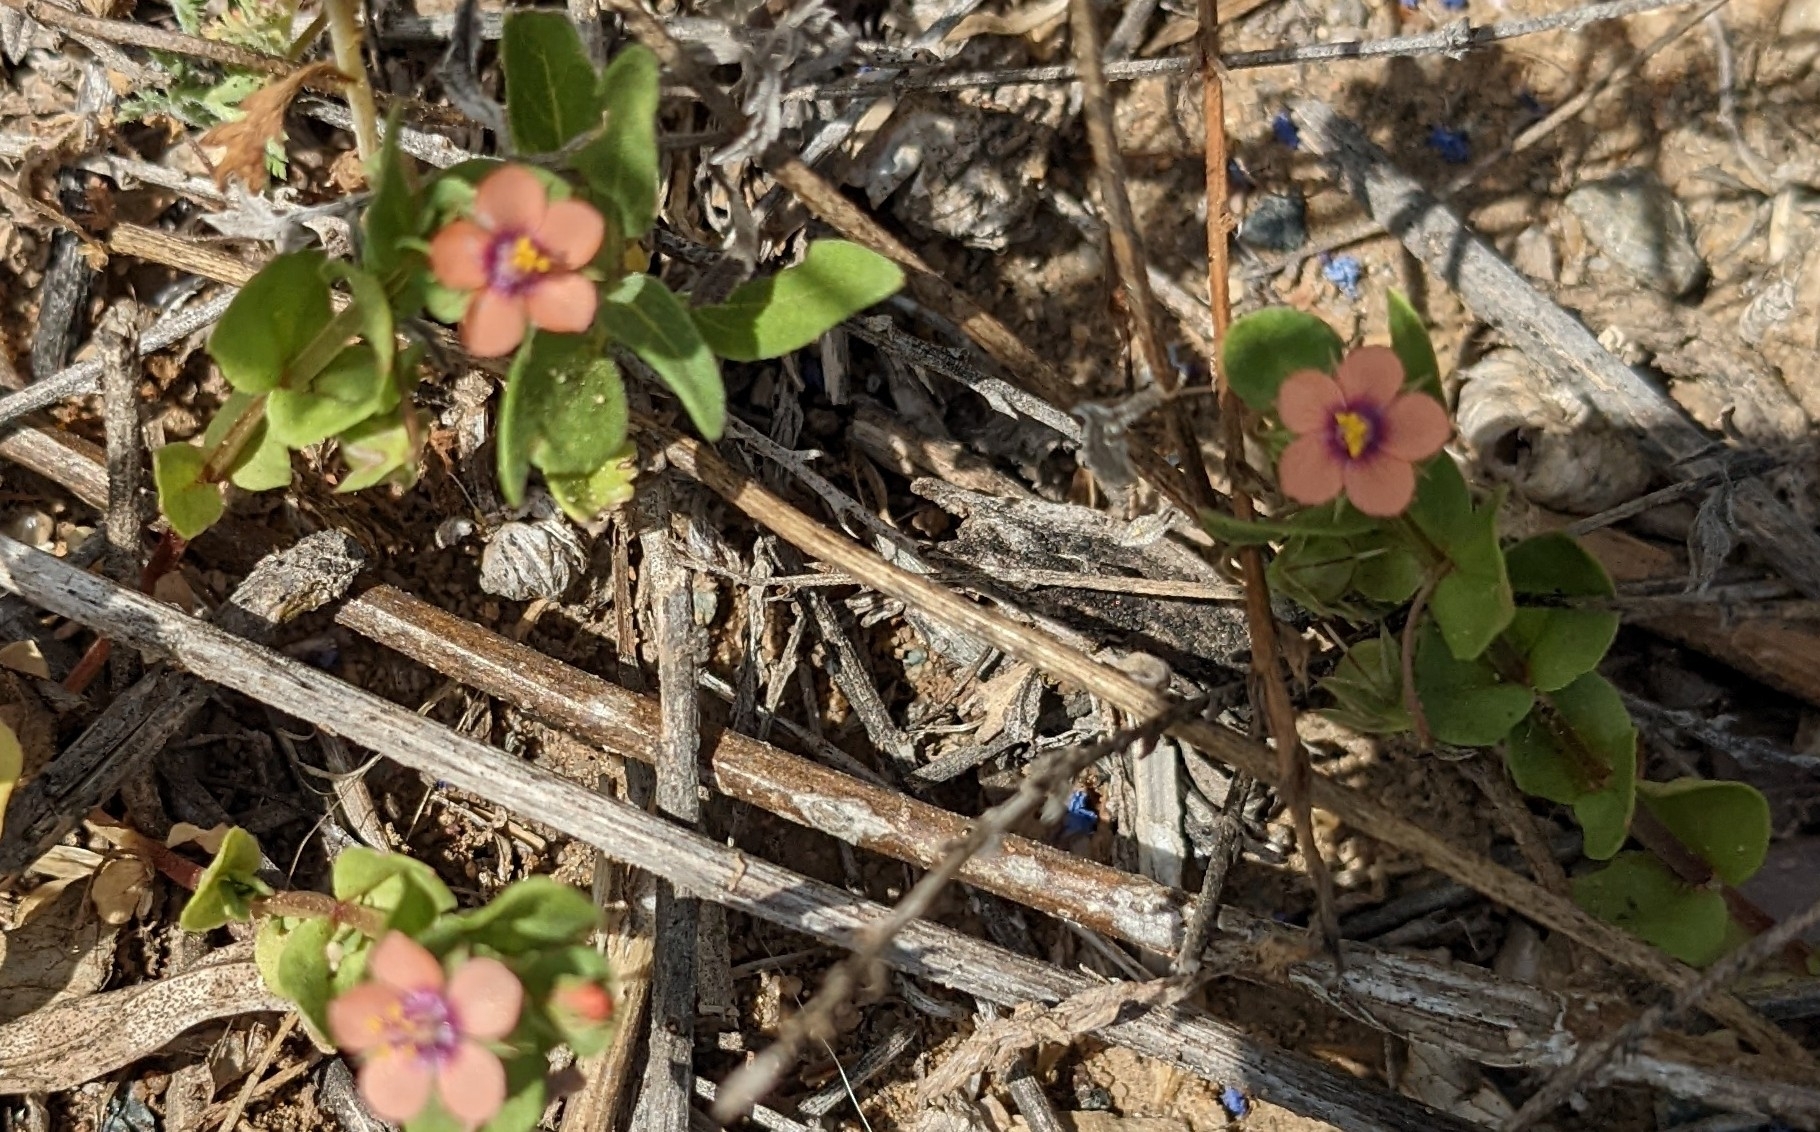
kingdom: Plantae
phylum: Tracheophyta
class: Magnoliopsida
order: Ericales
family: Primulaceae
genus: Lysimachia
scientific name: Lysimachia arvensis
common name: Scarlet pimpernel
